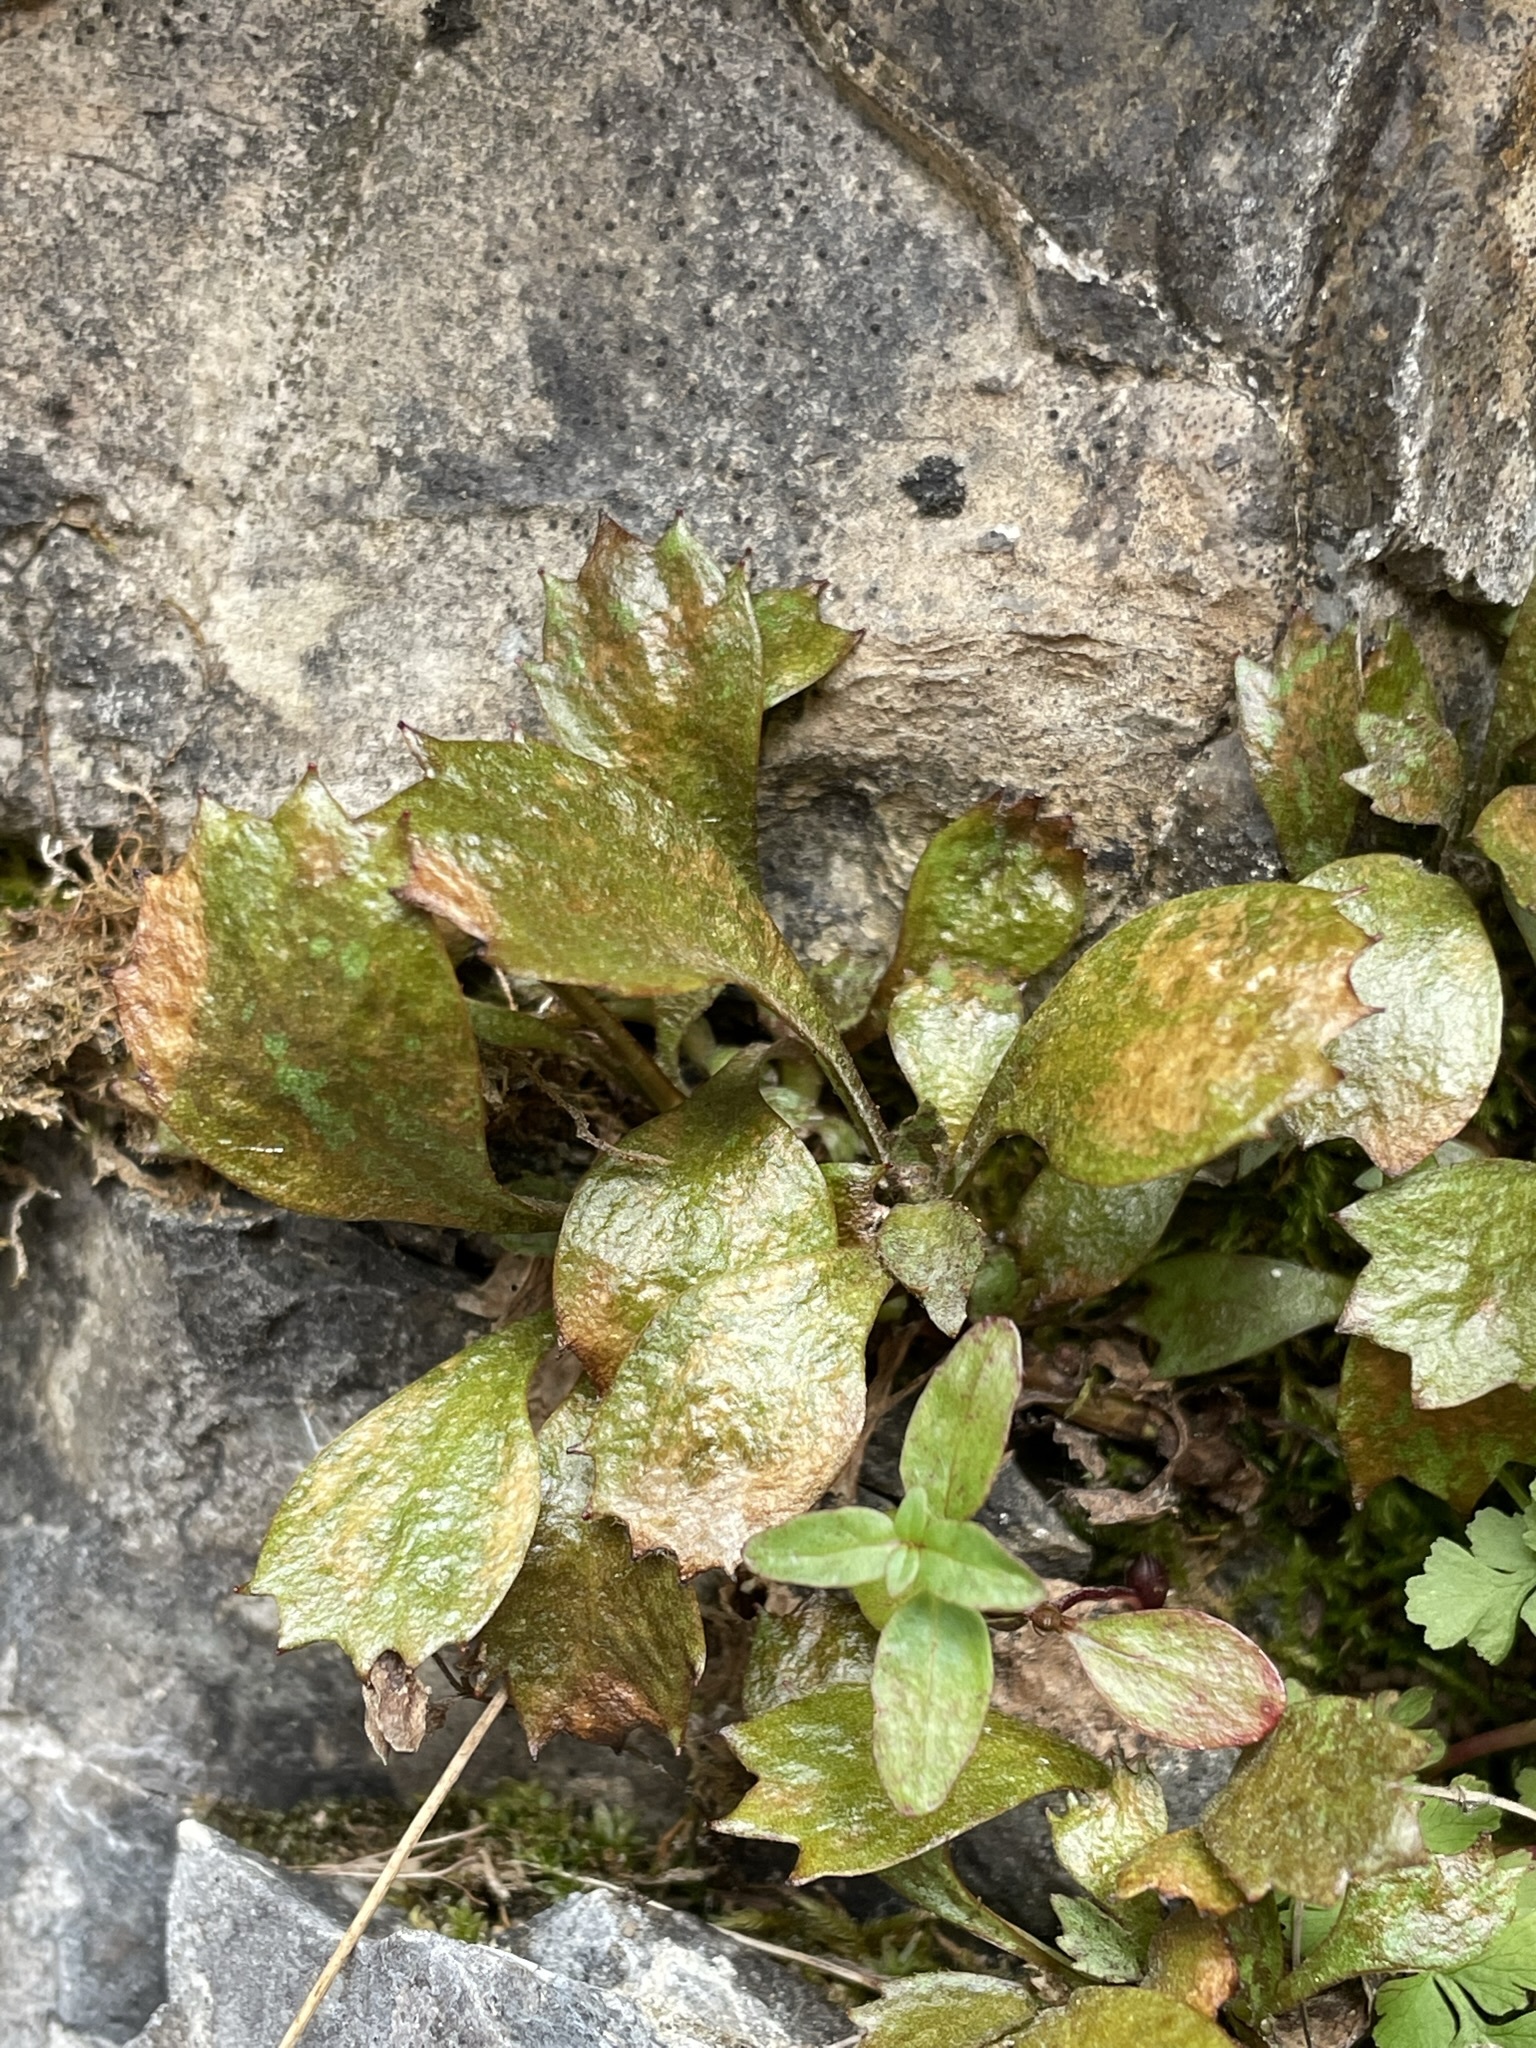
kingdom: Plantae
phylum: Tracheophyta
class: Magnoliopsida
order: Saxifragales
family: Saxifragaceae
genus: Micranthes
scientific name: Micranthes lyallii
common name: Lyall's saxifrage
